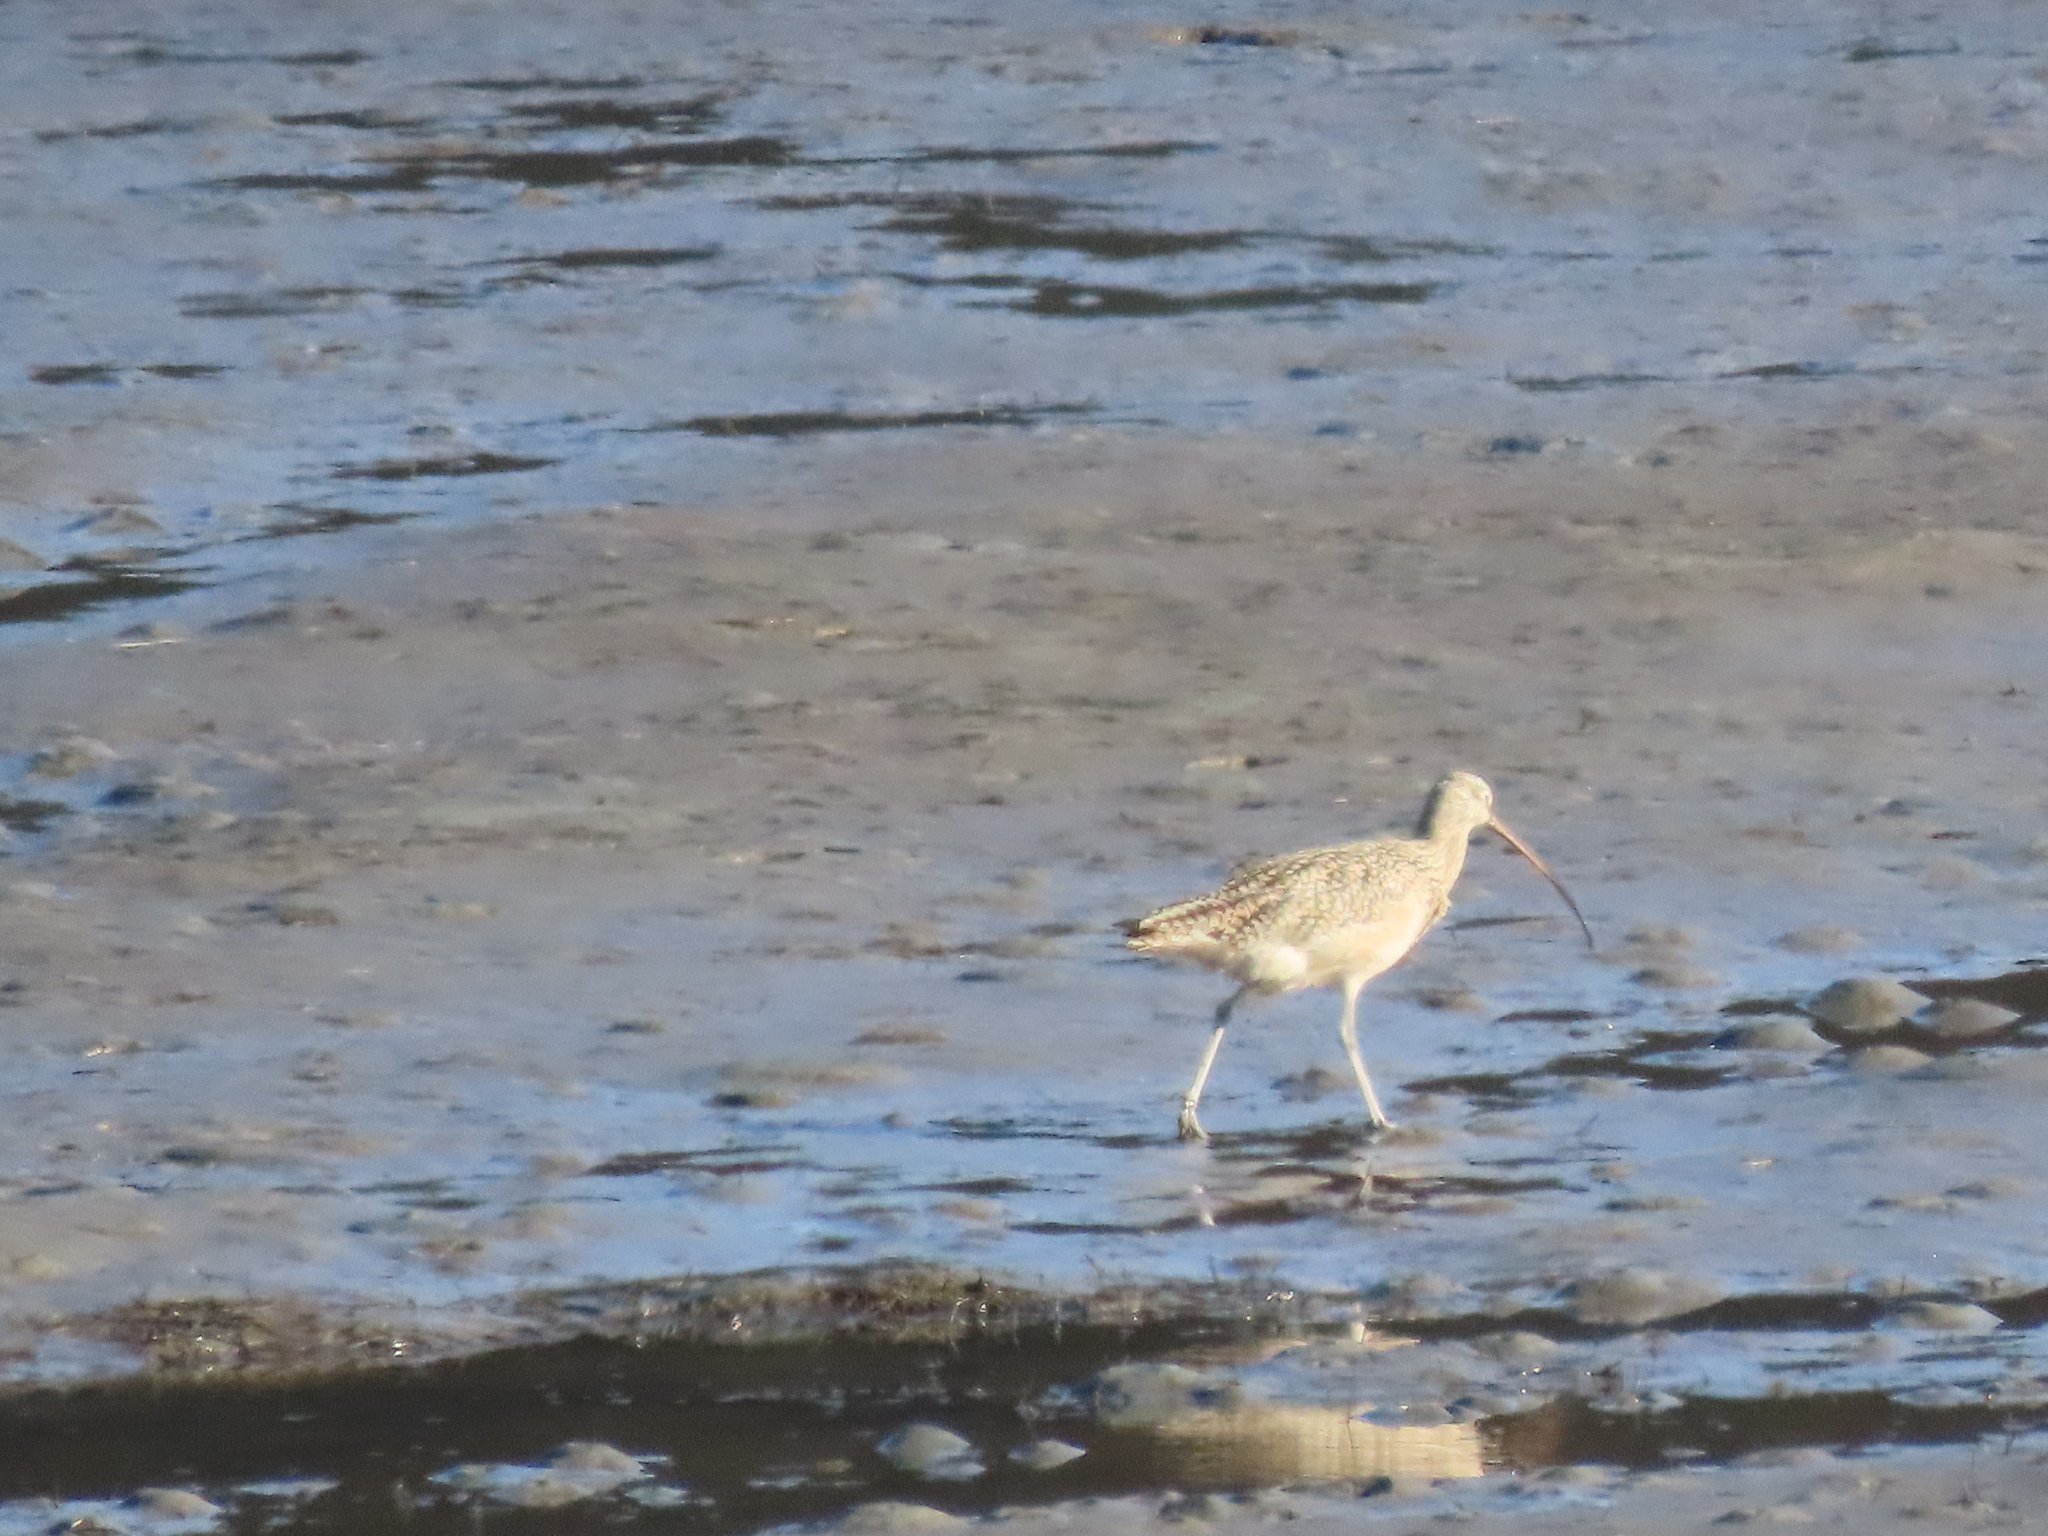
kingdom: Animalia
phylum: Chordata
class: Aves
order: Charadriiformes
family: Scolopacidae
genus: Numenius
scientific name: Numenius americanus
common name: Long-billed curlew
